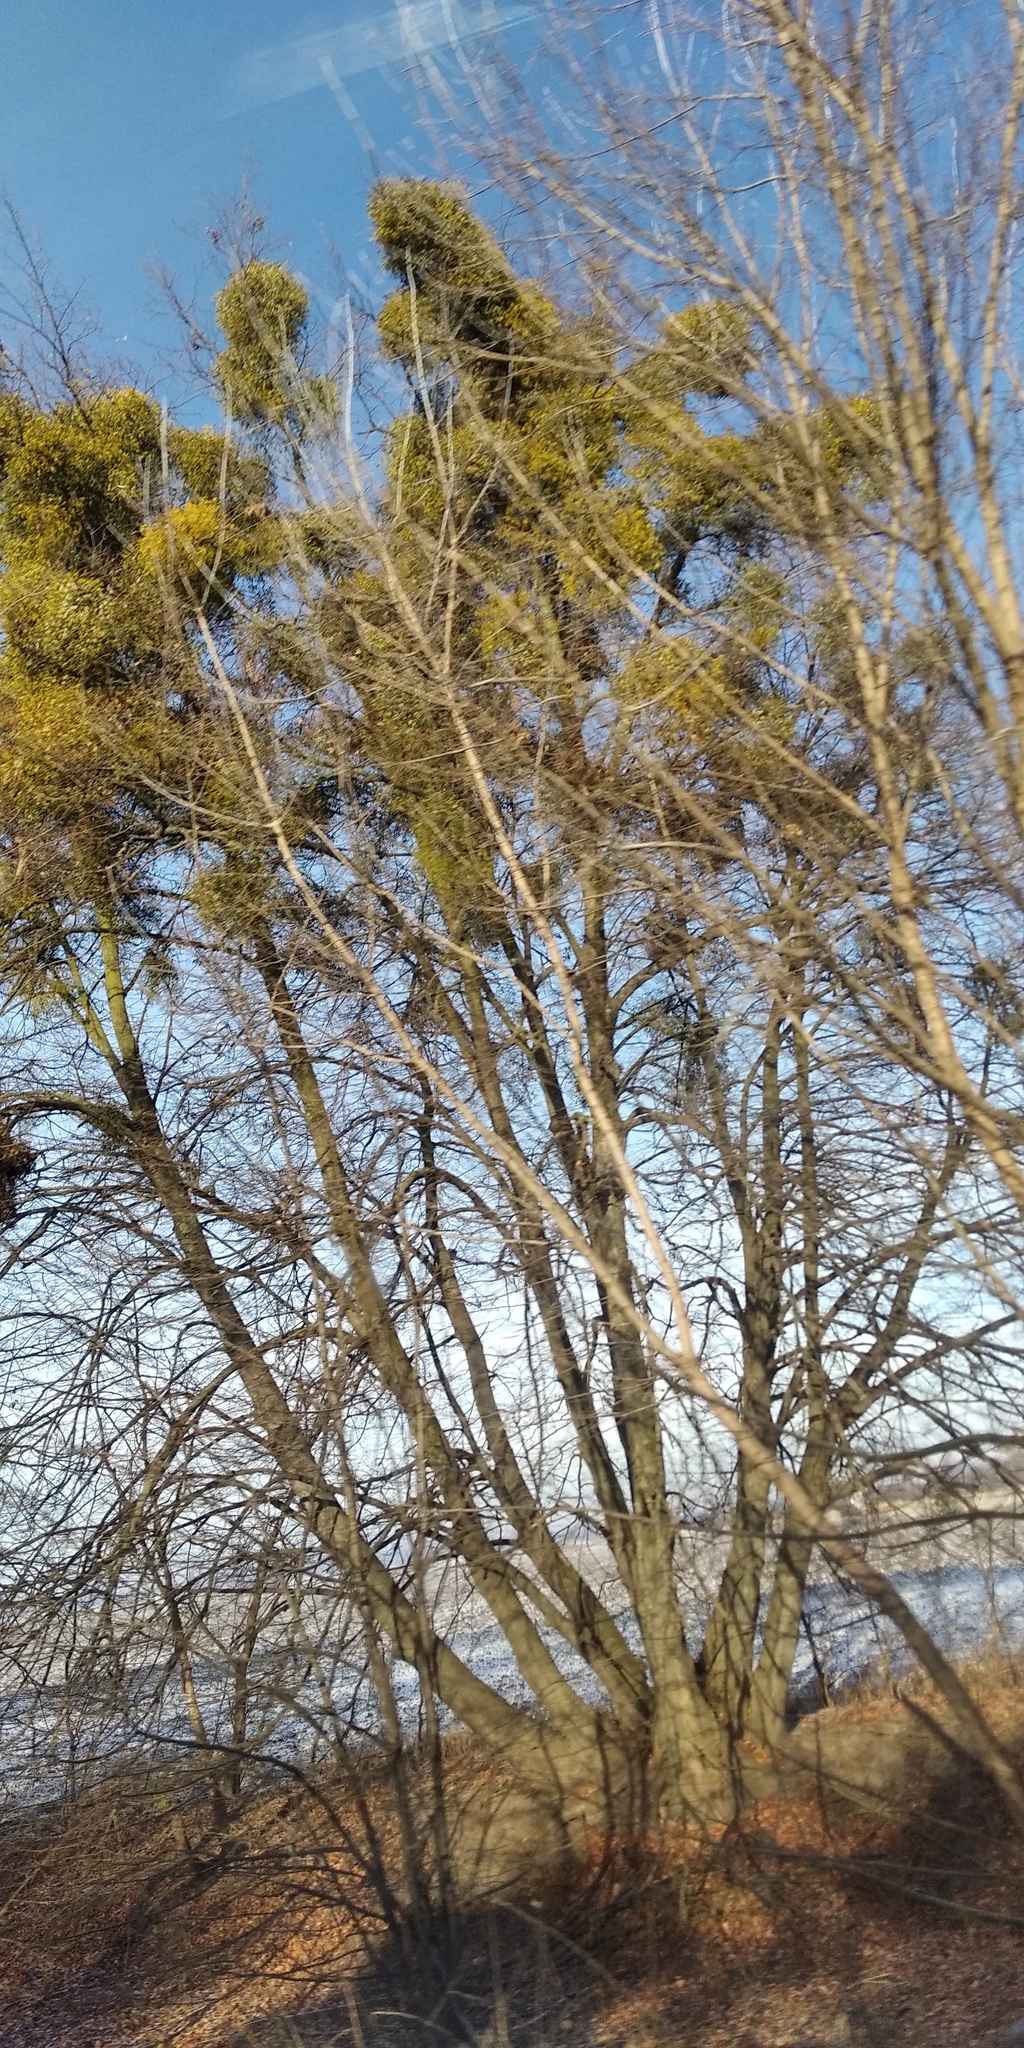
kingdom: Plantae
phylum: Tracheophyta
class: Magnoliopsida
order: Santalales
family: Viscaceae
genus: Viscum
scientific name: Viscum album
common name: Mistletoe
